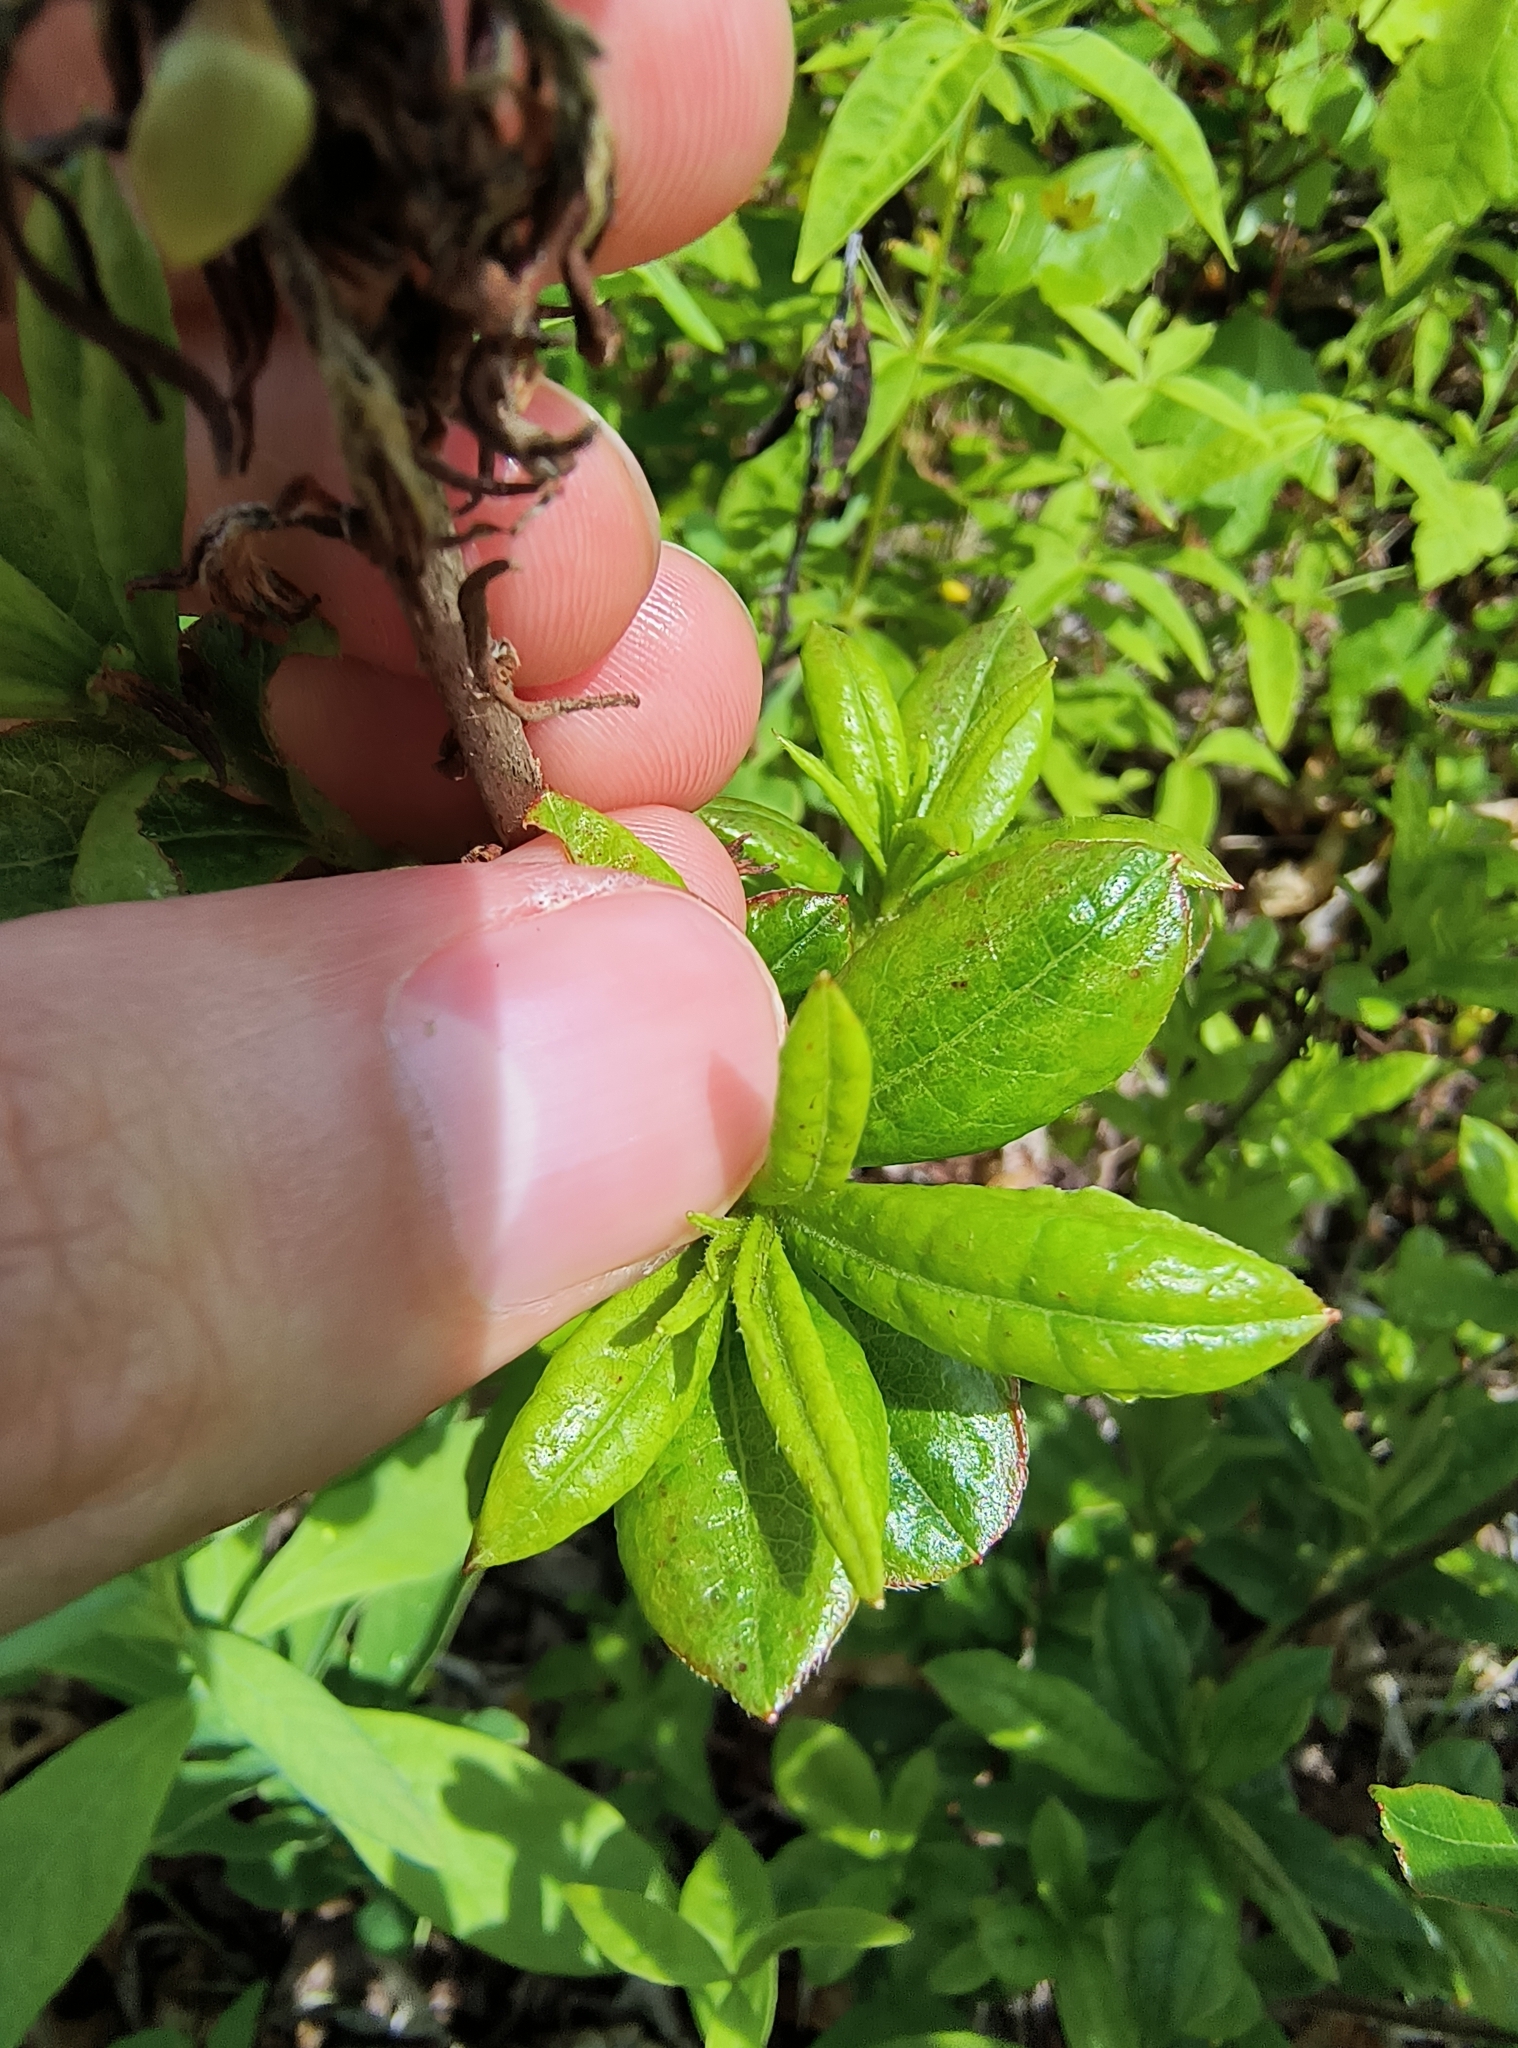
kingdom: Plantae
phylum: Tracheophyta
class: Magnoliopsida
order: Ericales
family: Ericaceae
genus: Rhododendron
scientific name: Rhododendron viscosum
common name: Clammy azalea
